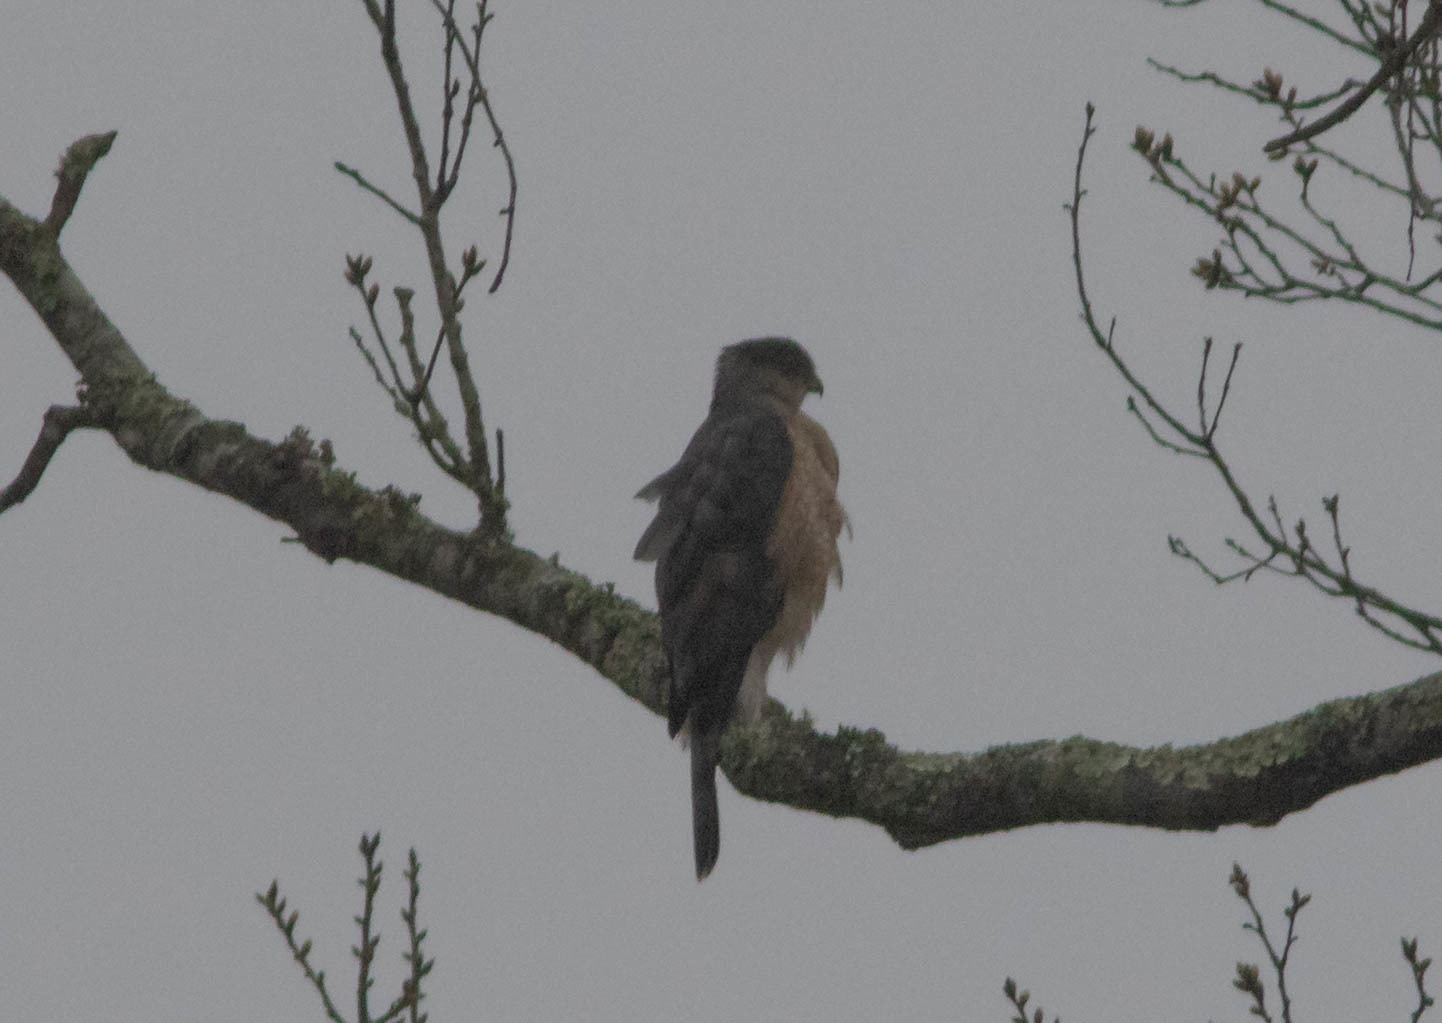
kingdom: Animalia
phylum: Chordata
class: Aves
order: Accipitriformes
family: Accipitridae
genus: Accipiter
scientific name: Accipiter cooperii
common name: Cooper's hawk
